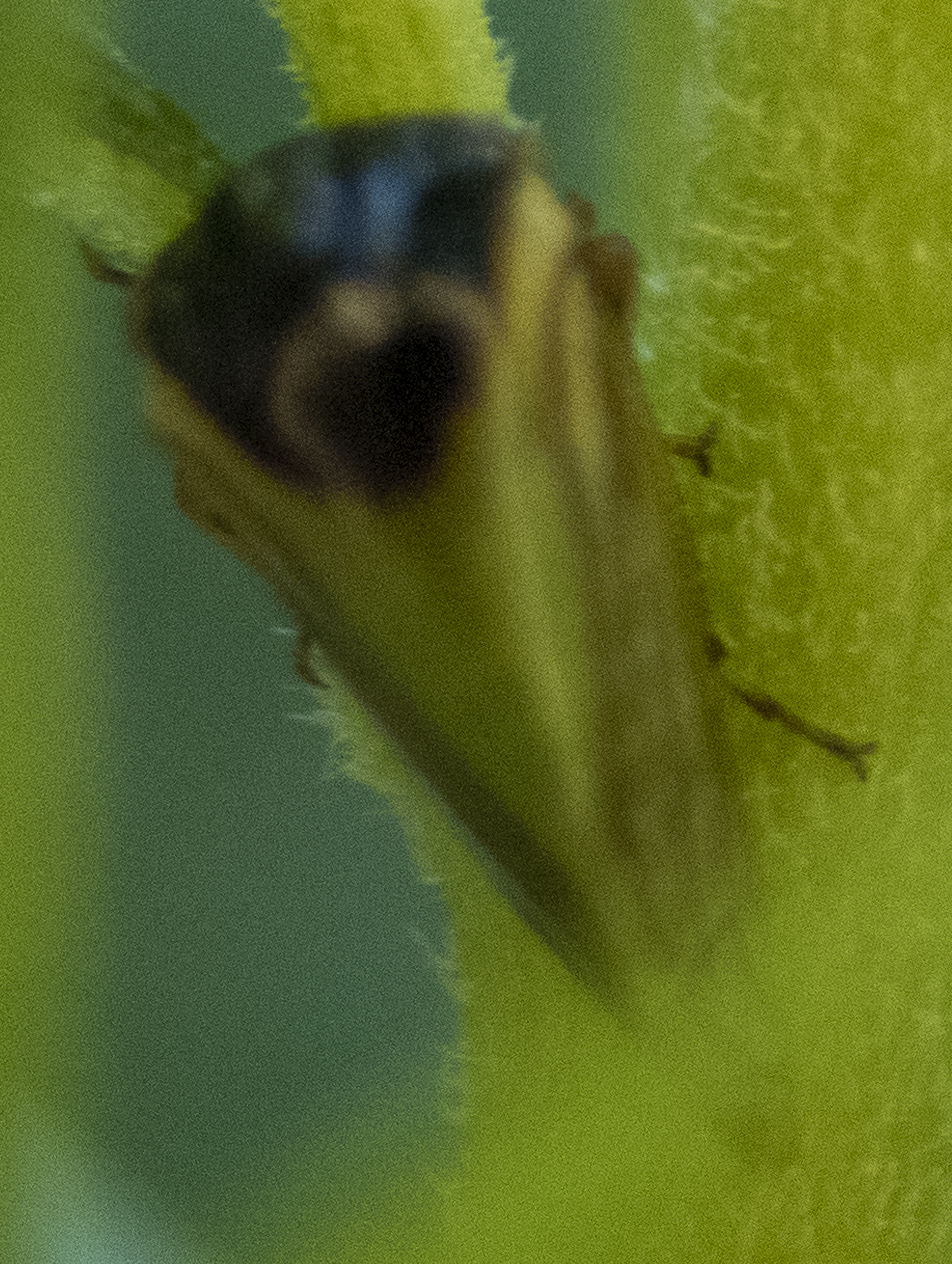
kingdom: Animalia
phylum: Arthropoda
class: Insecta
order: Hemiptera
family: Membracidae
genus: Acutalis
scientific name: Acutalis tartarea
